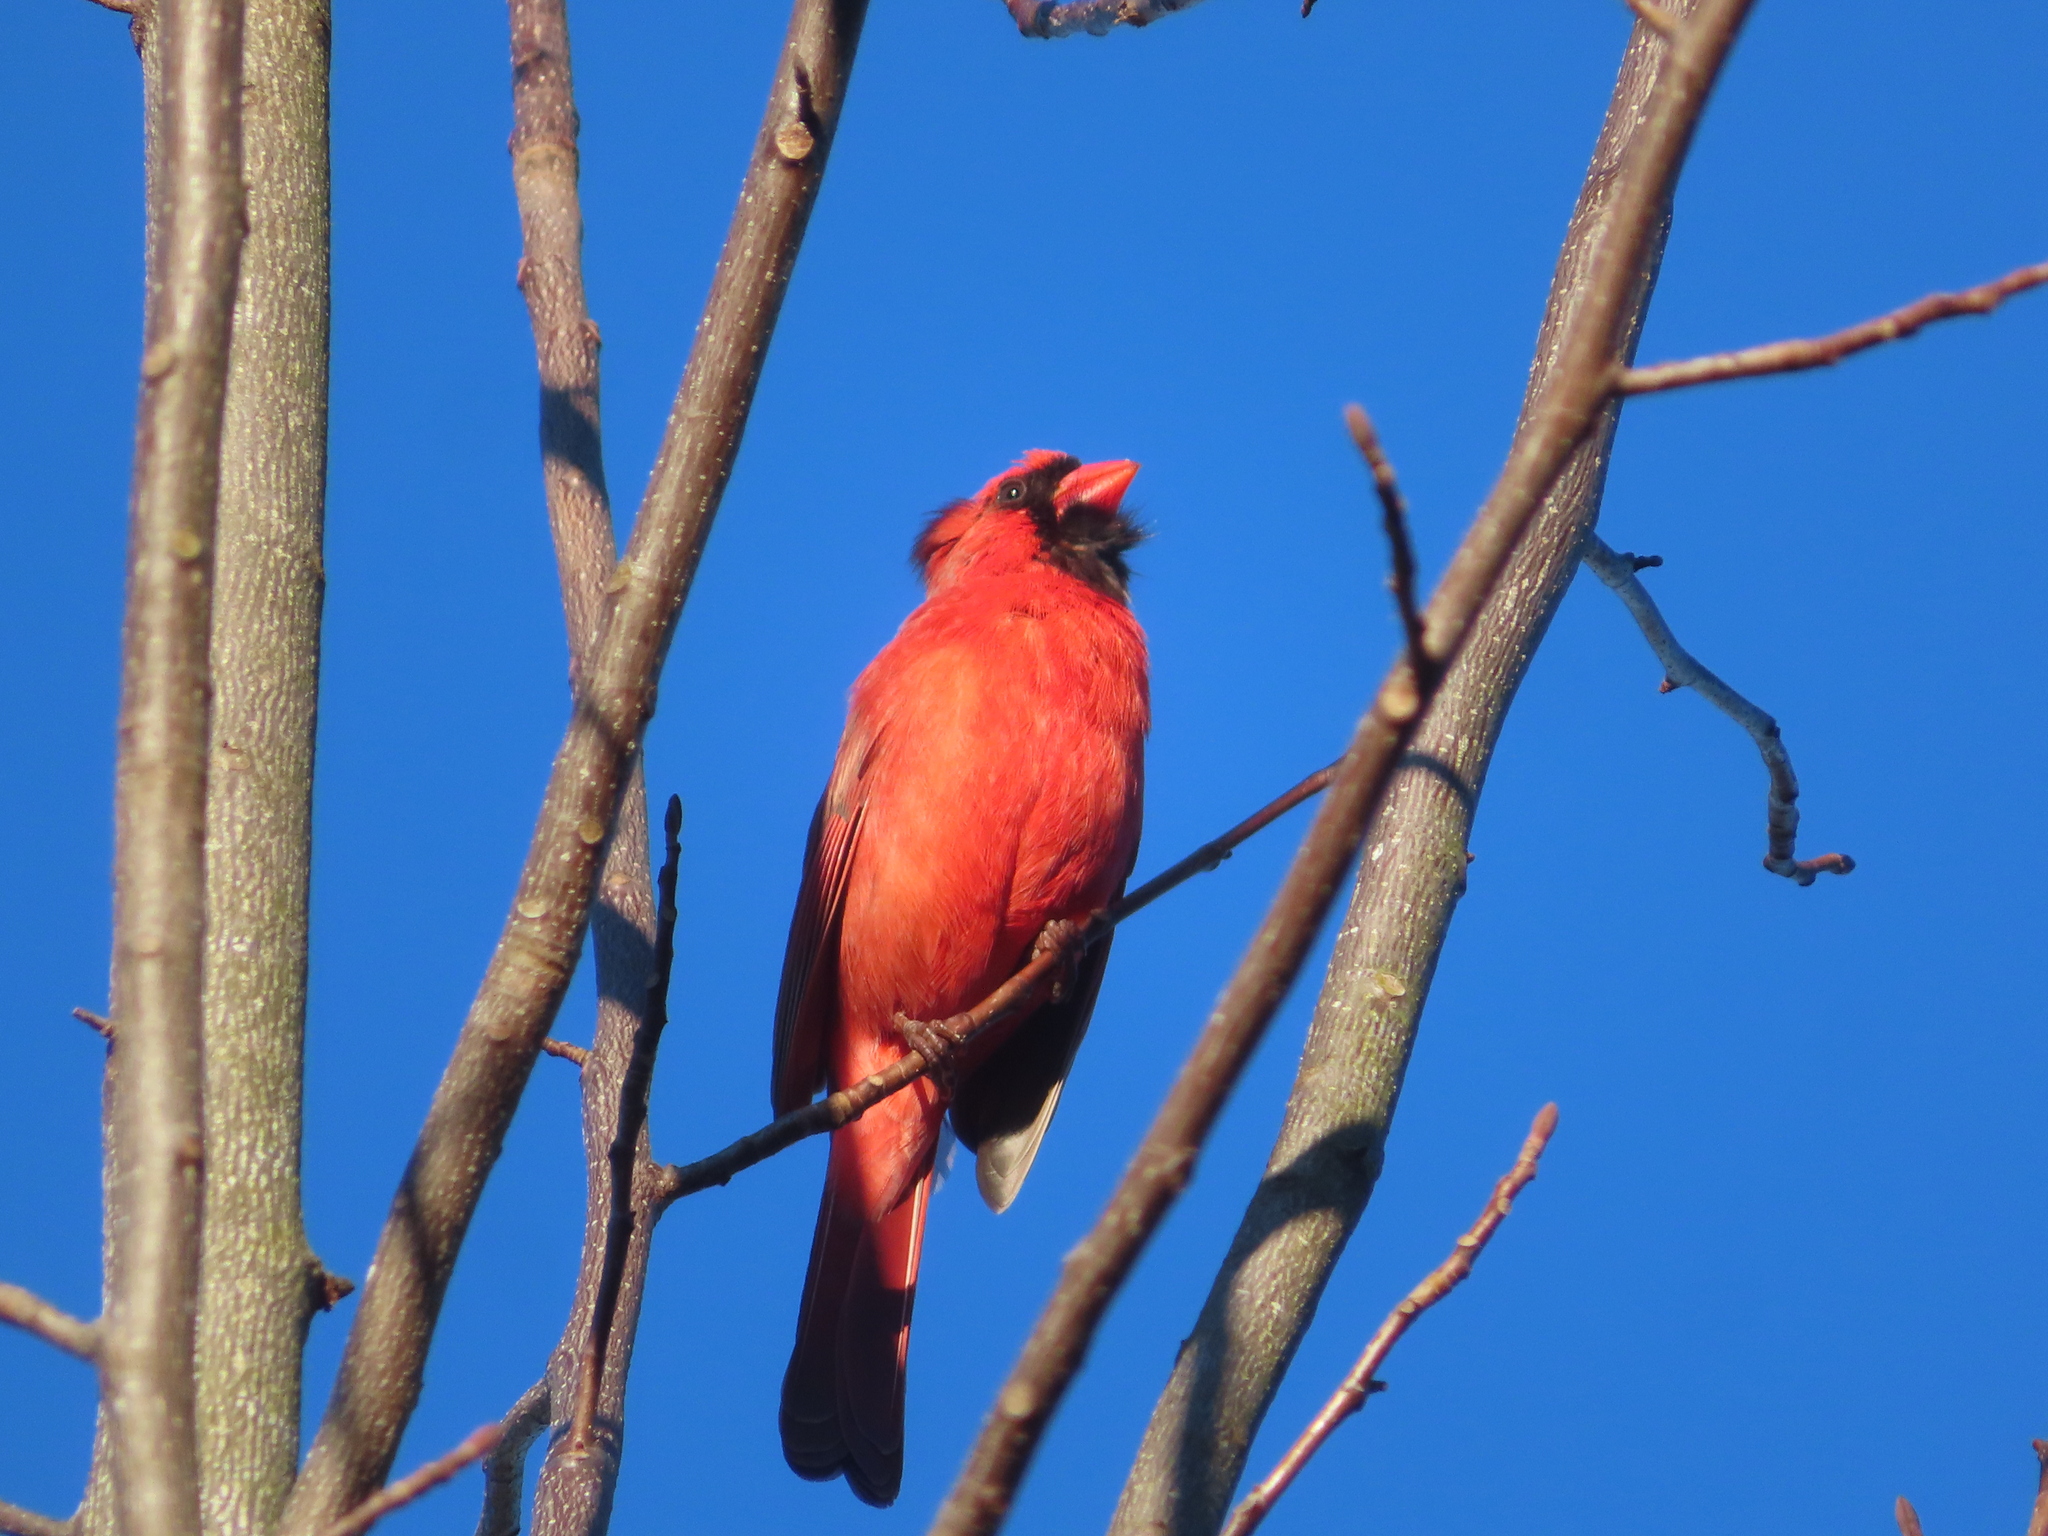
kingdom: Animalia
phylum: Chordata
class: Aves
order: Passeriformes
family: Cardinalidae
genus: Cardinalis
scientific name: Cardinalis cardinalis
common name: Northern cardinal
